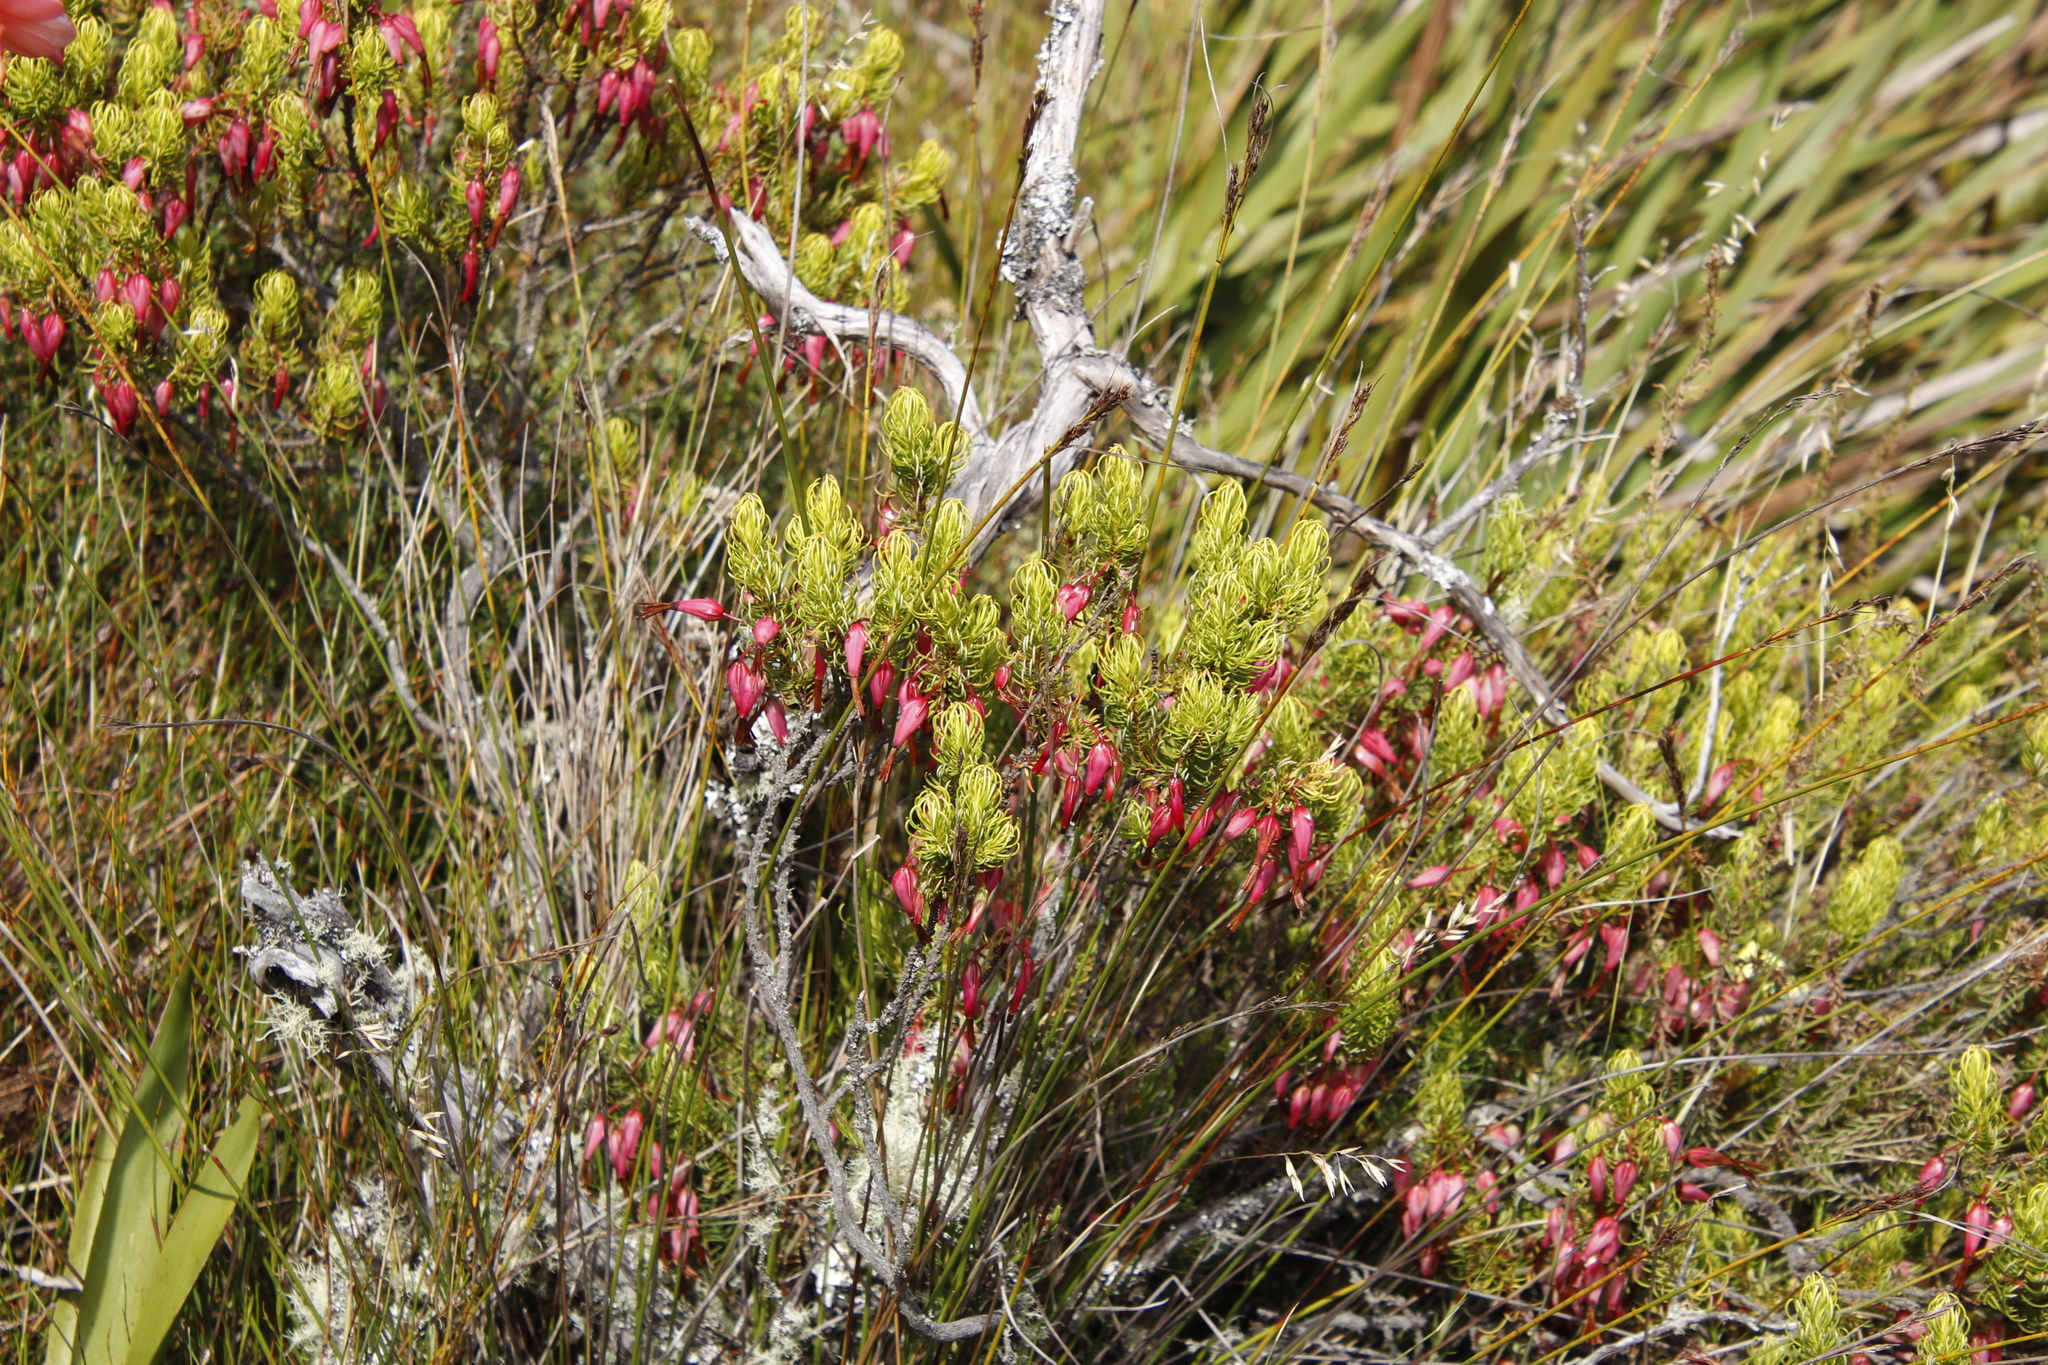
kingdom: Plantae
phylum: Tracheophyta
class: Magnoliopsida
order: Ericales
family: Ericaceae
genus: Erica
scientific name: Erica plukenetii
